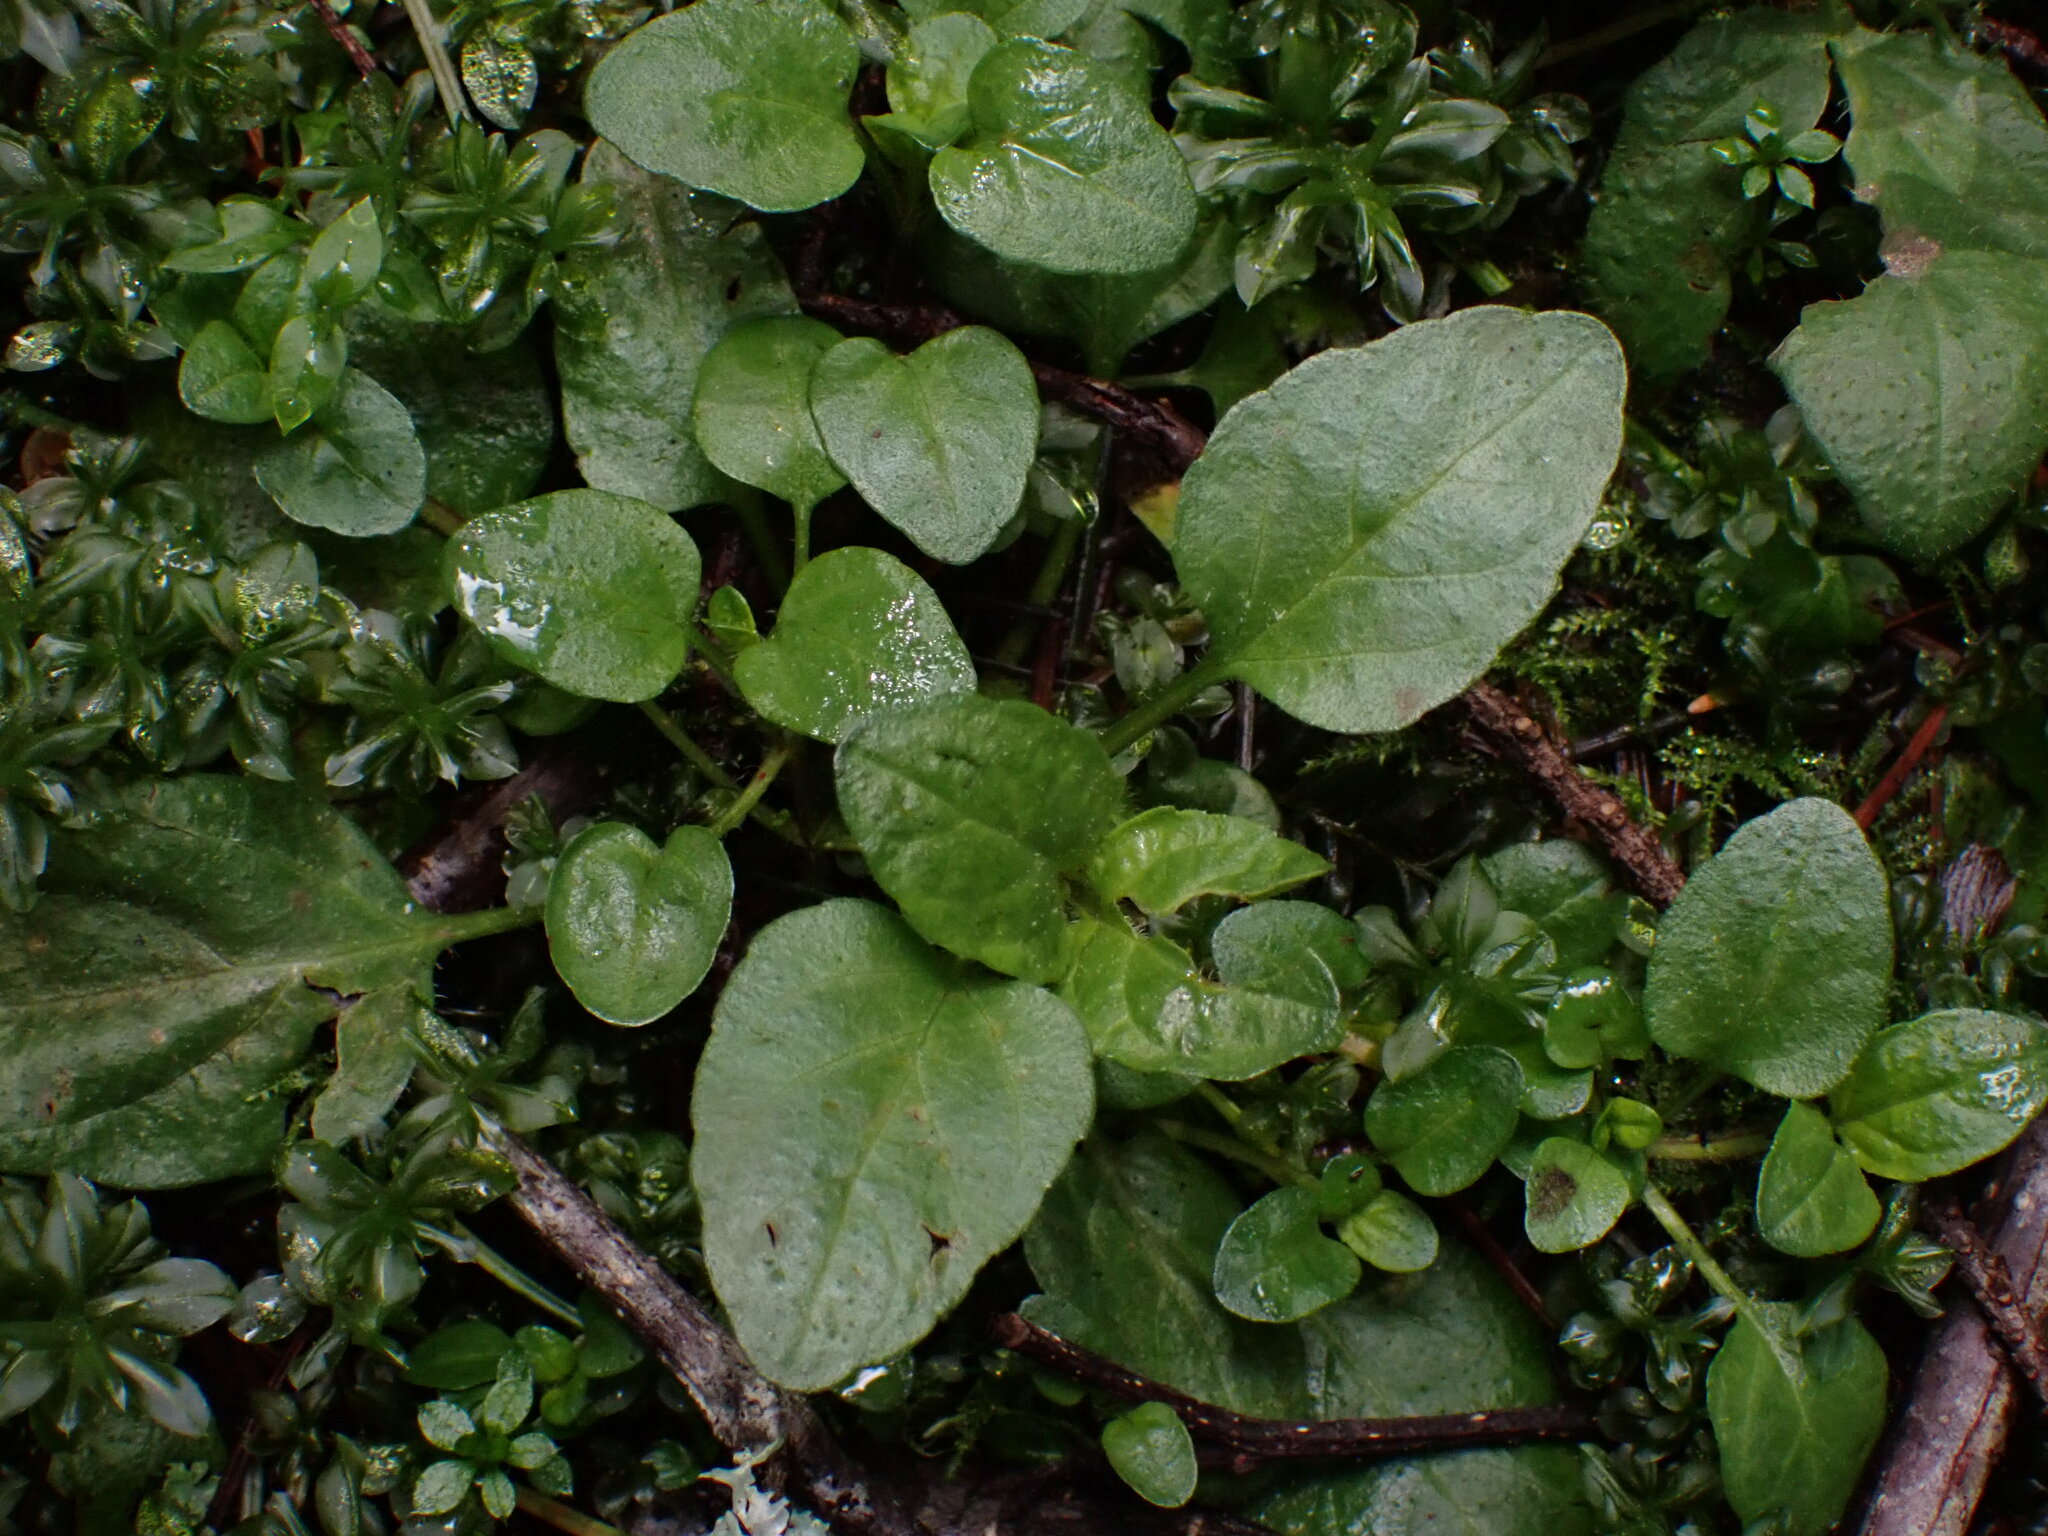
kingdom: Plantae
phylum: Tracheophyta
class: Magnoliopsida
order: Lamiales
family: Lamiaceae
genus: Prunella
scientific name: Prunella vulgaris
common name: Heal-all
